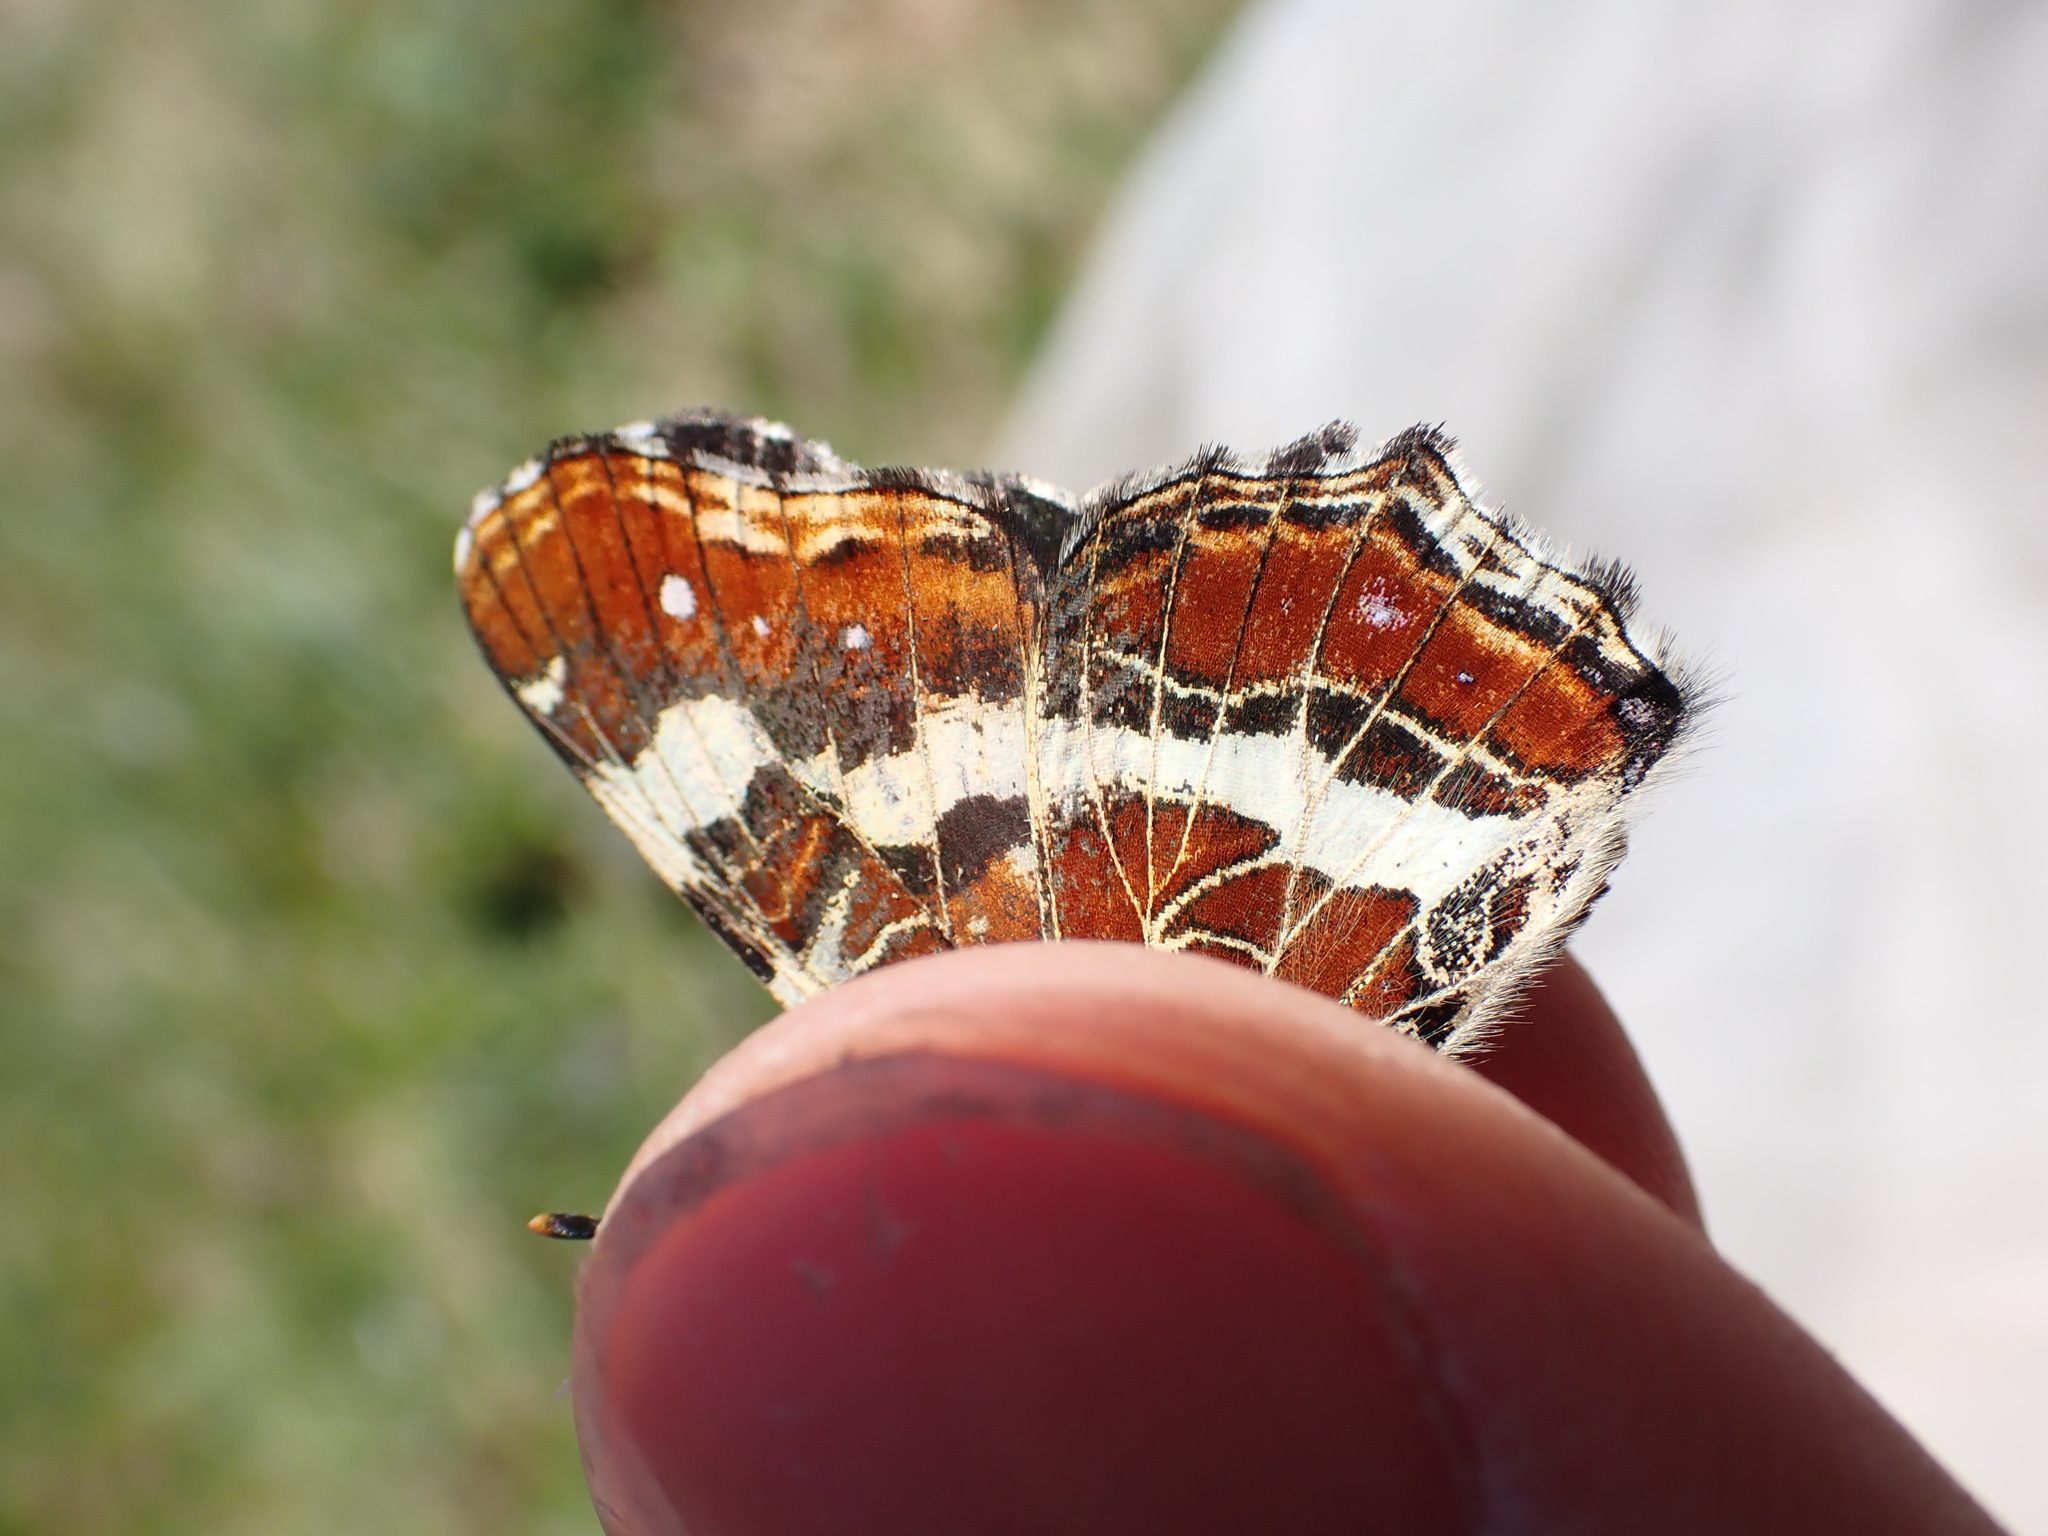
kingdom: Animalia
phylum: Arthropoda
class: Insecta
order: Lepidoptera
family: Nymphalidae
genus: Araschnia
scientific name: Araschnia levana
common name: Map butterfly
